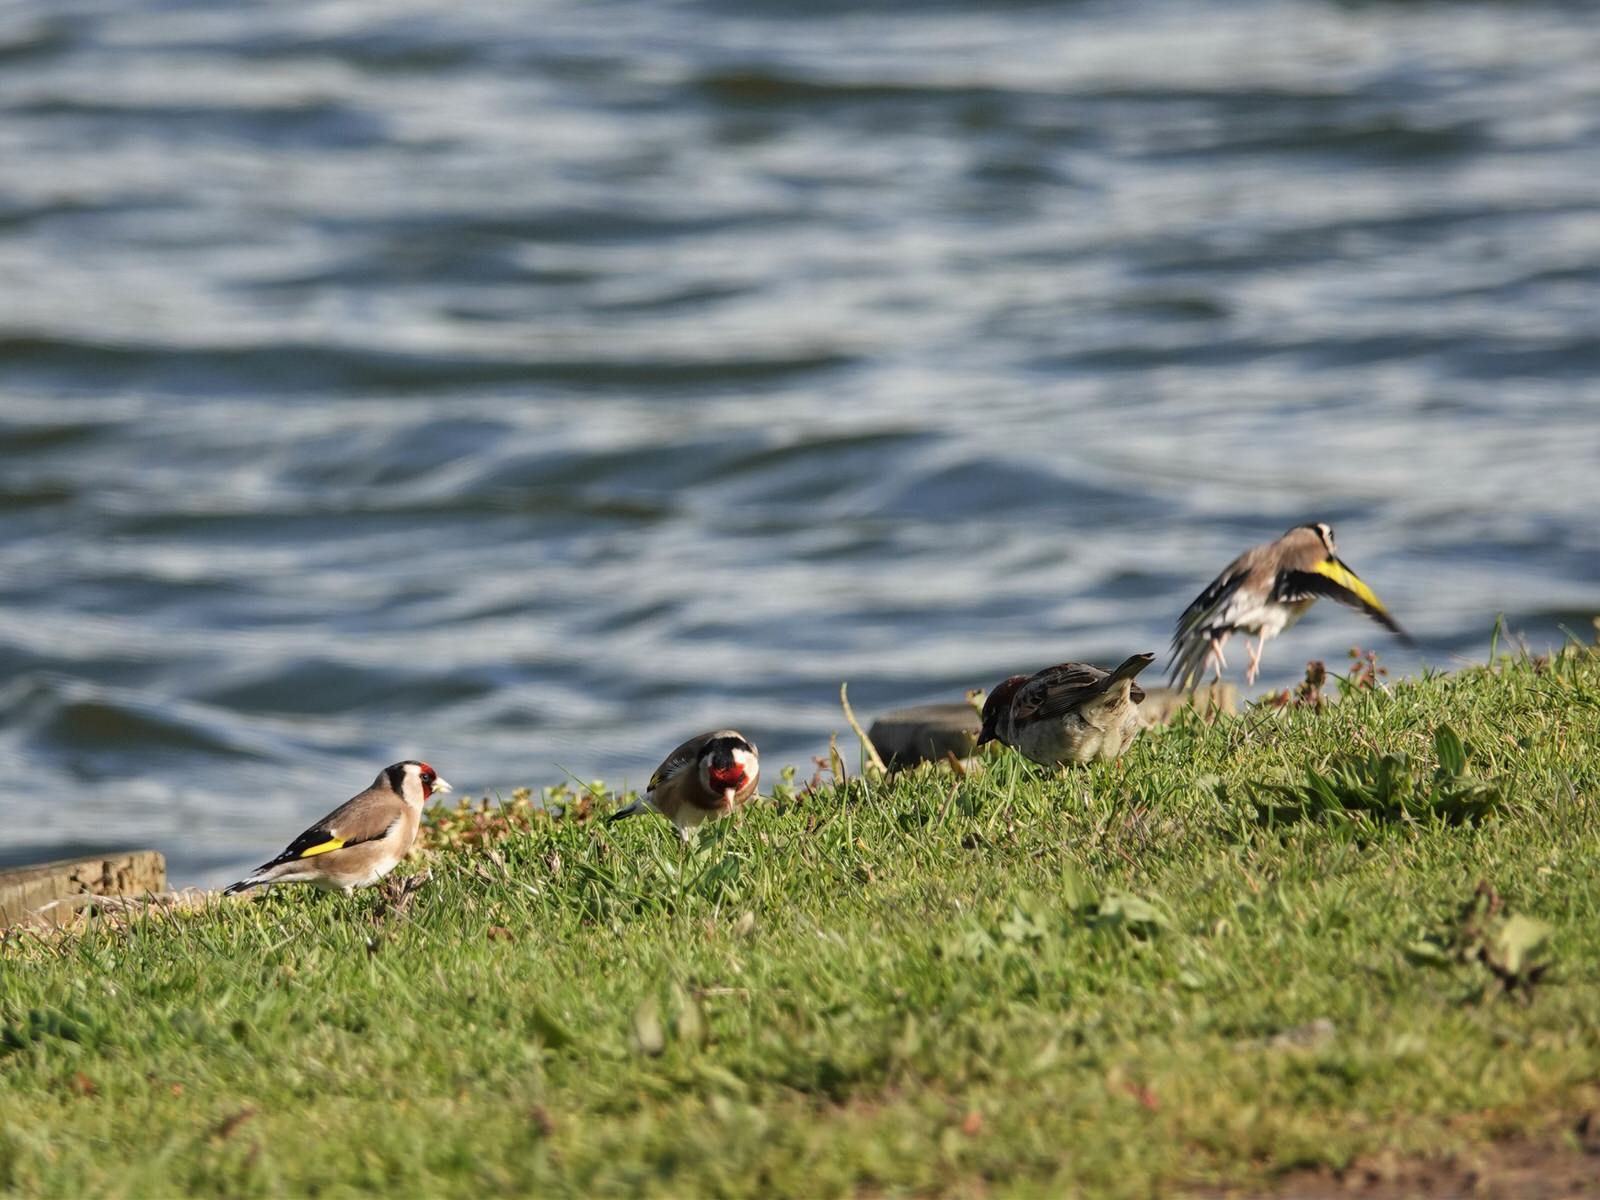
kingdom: Animalia
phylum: Chordata
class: Aves
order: Passeriformes
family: Fringillidae
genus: Carduelis
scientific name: Carduelis carduelis
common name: European goldfinch
